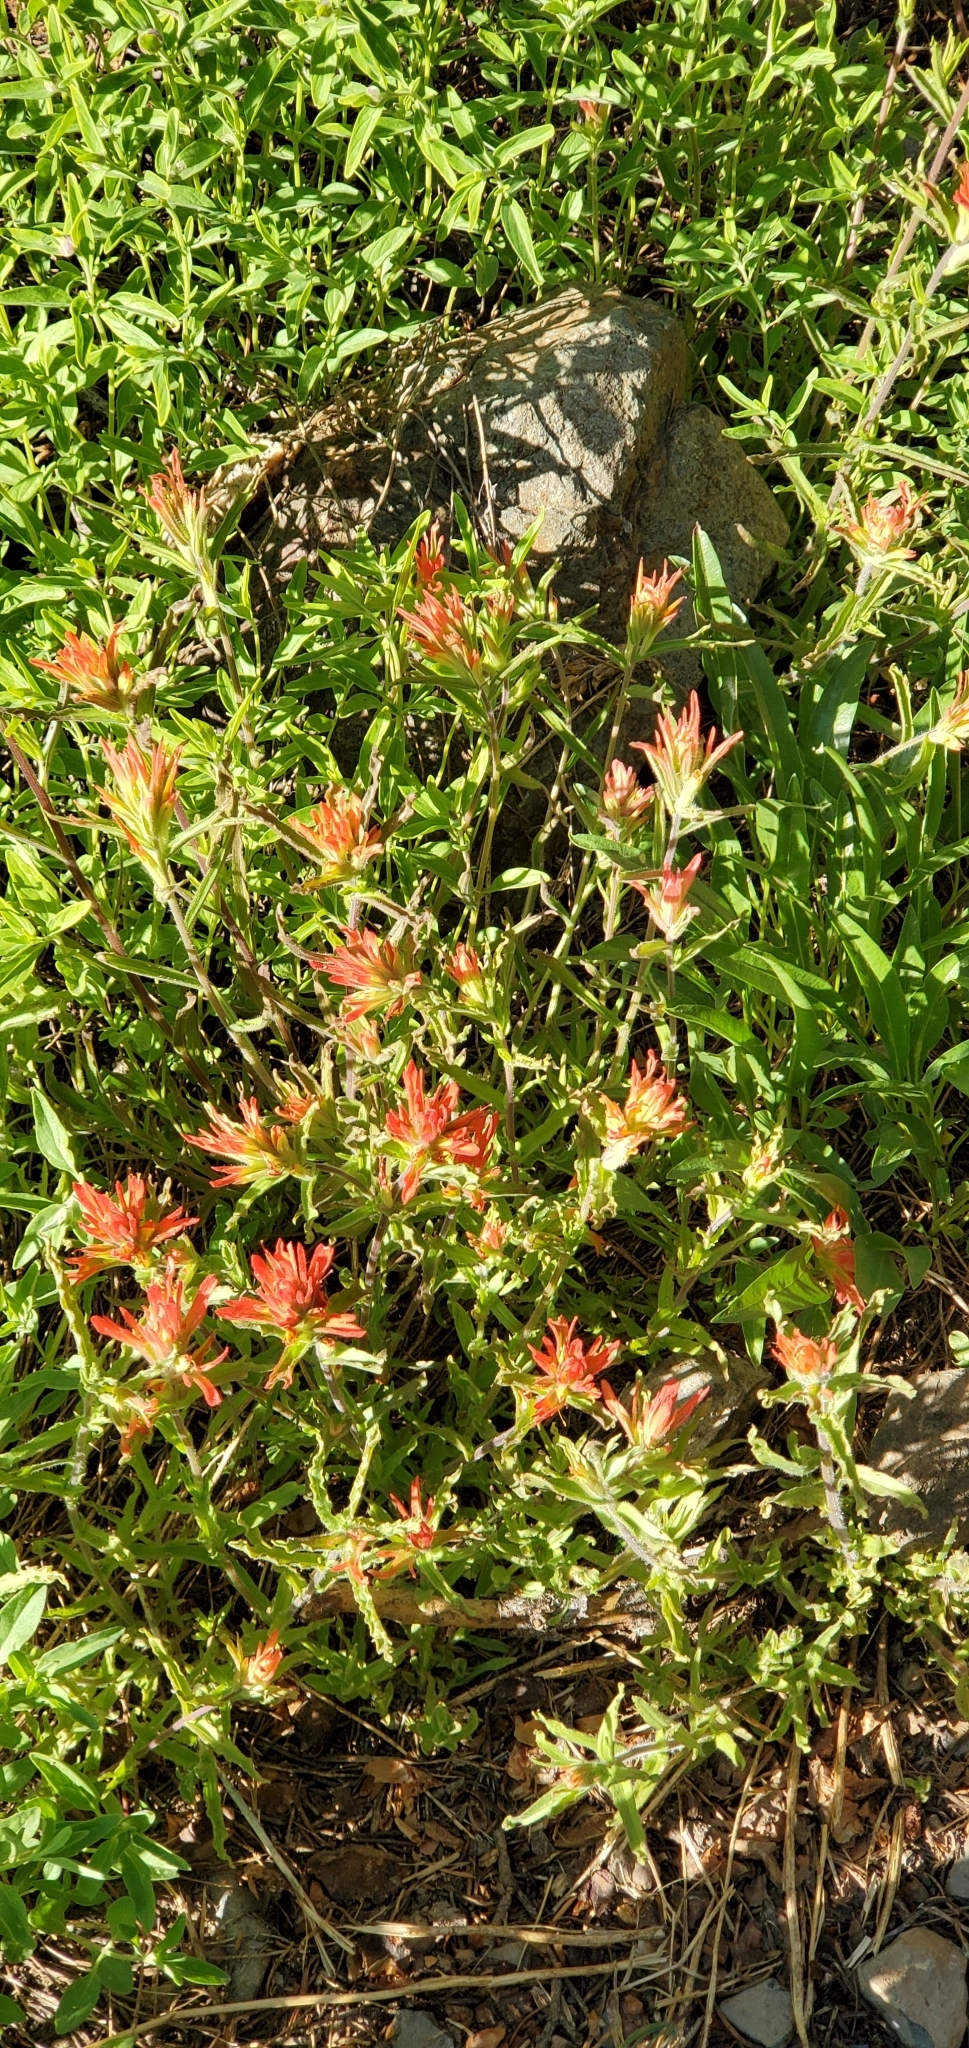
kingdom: Plantae
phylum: Tracheophyta
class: Magnoliopsida
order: Lamiales
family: Orobanchaceae
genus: Castilleja
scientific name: Castilleja applegatei
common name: Wavy-leaf paintbrush
